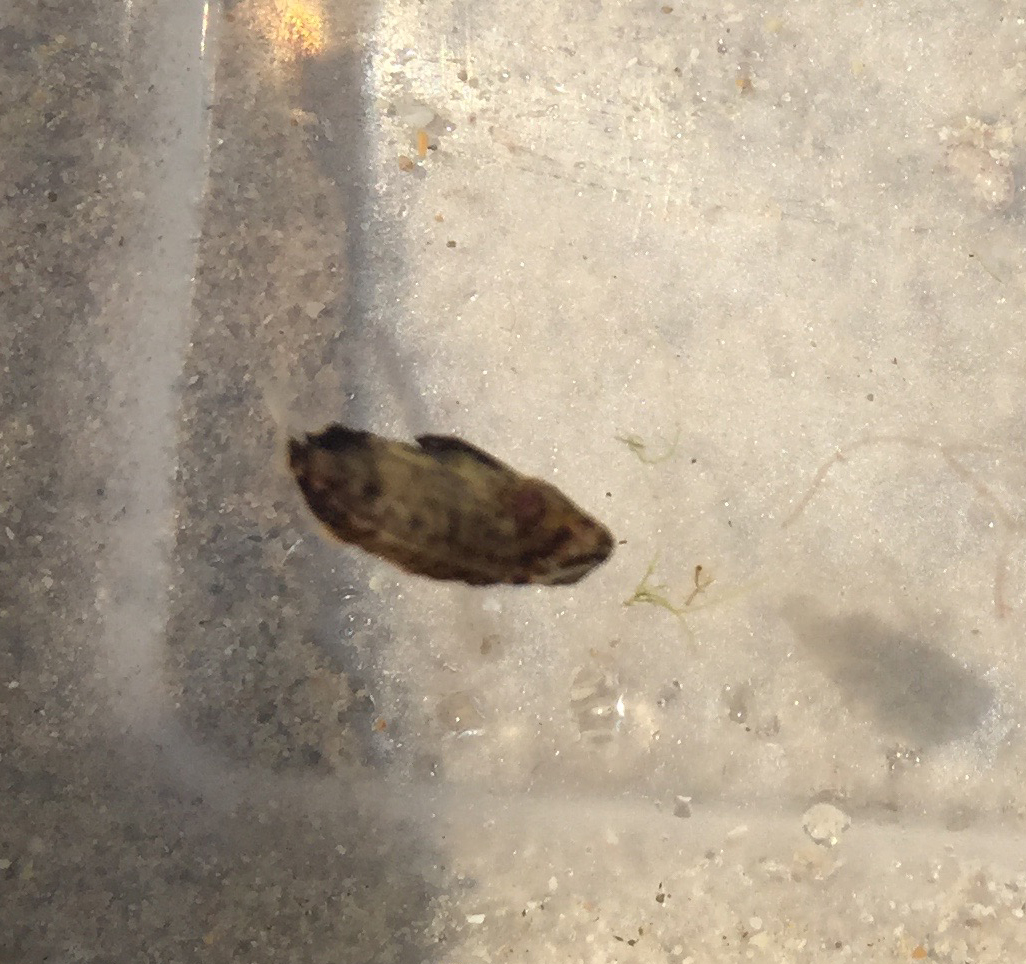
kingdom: Animalia
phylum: Chordata
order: Perciformes
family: Lobotidae
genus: Lobotes
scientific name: Lobotes surinamensis
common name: Atlantic tripletail
